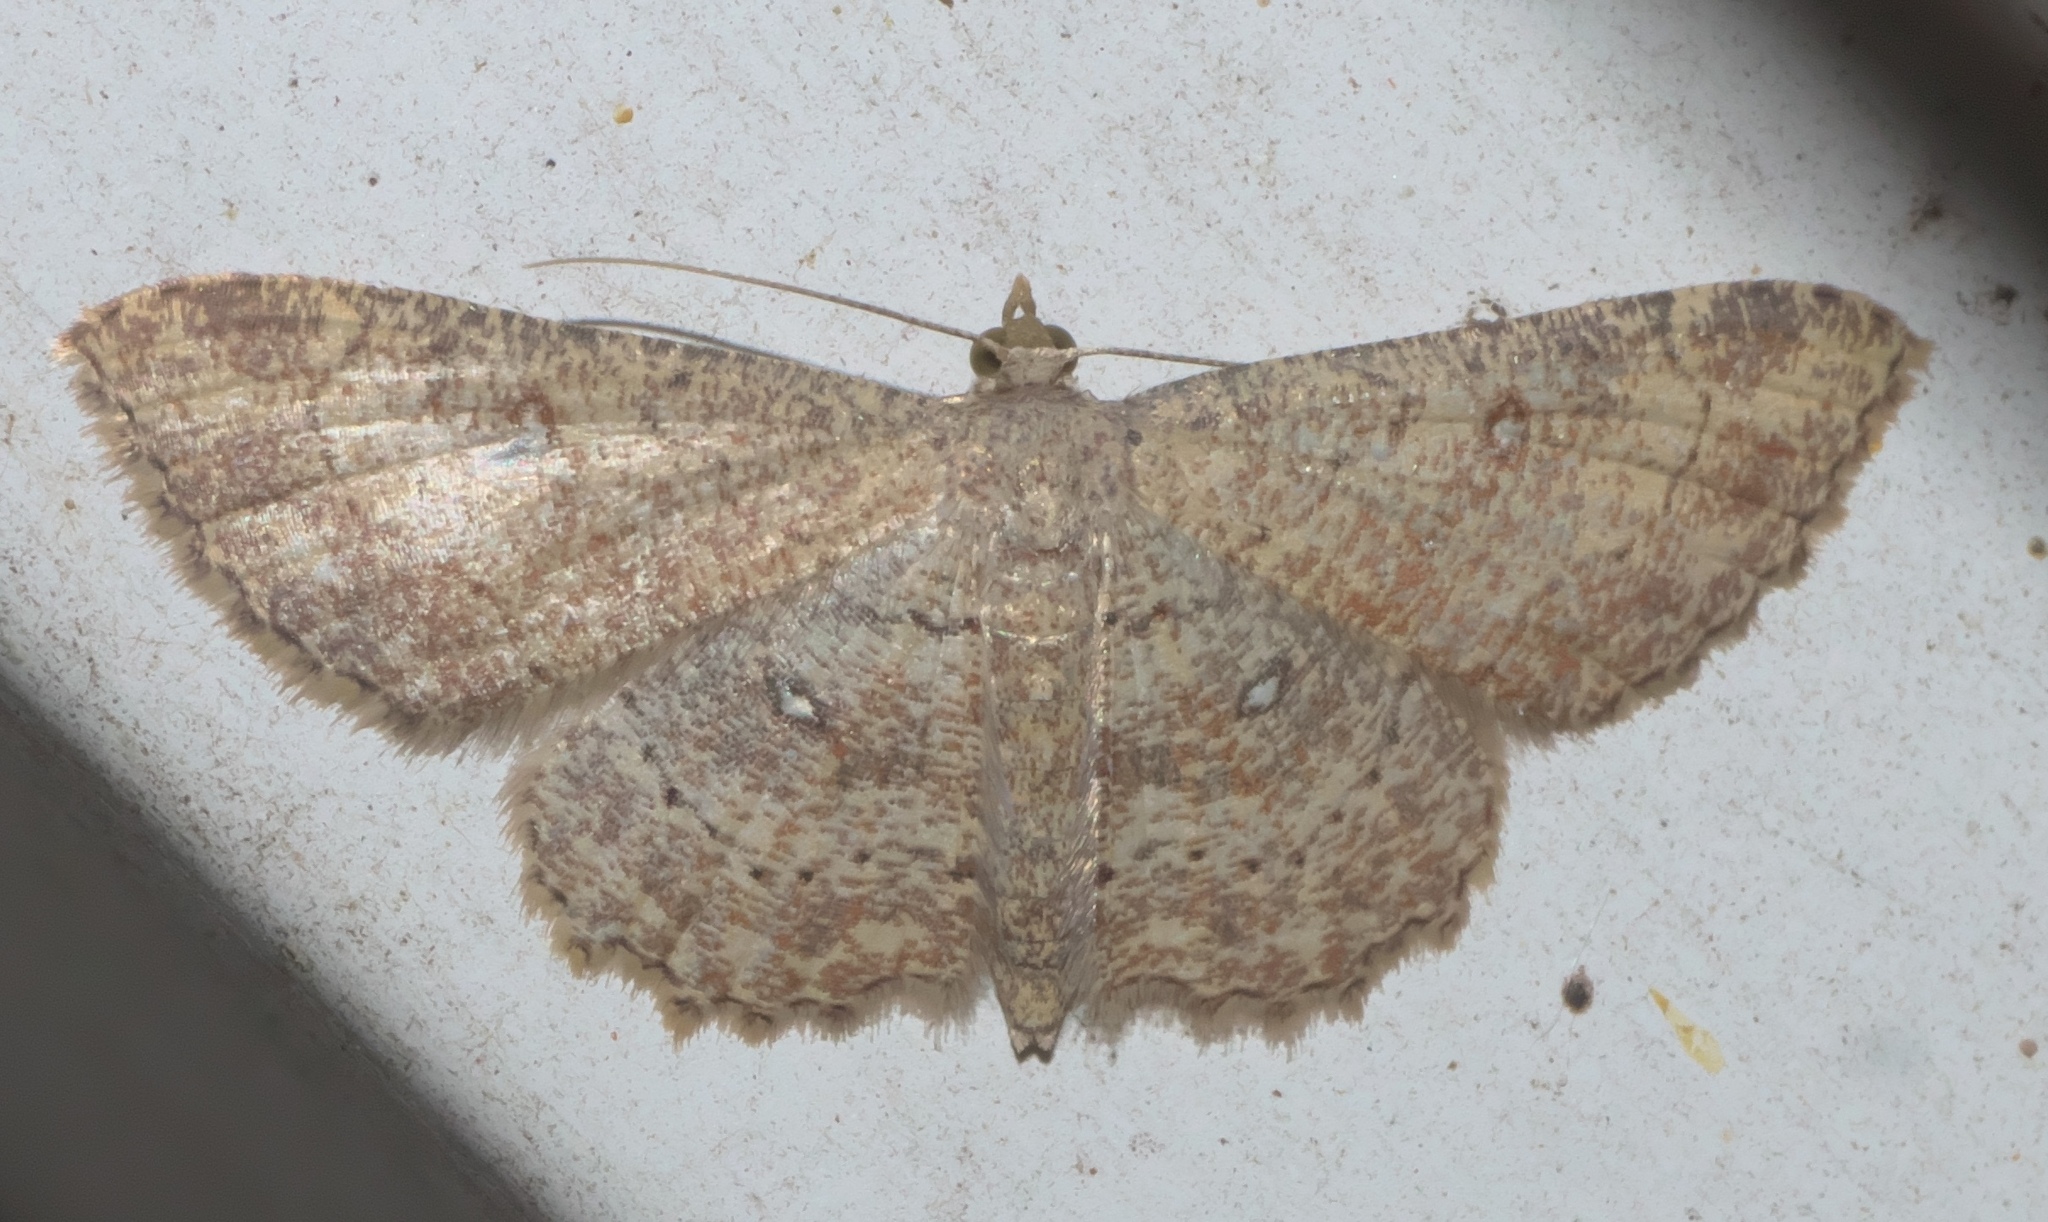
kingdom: Animalia
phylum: Arthropoda
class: Insecta
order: Lepidoptera
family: Geometridae
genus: Cyclophora
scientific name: Cyclophora nanaria
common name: Cankerworm
